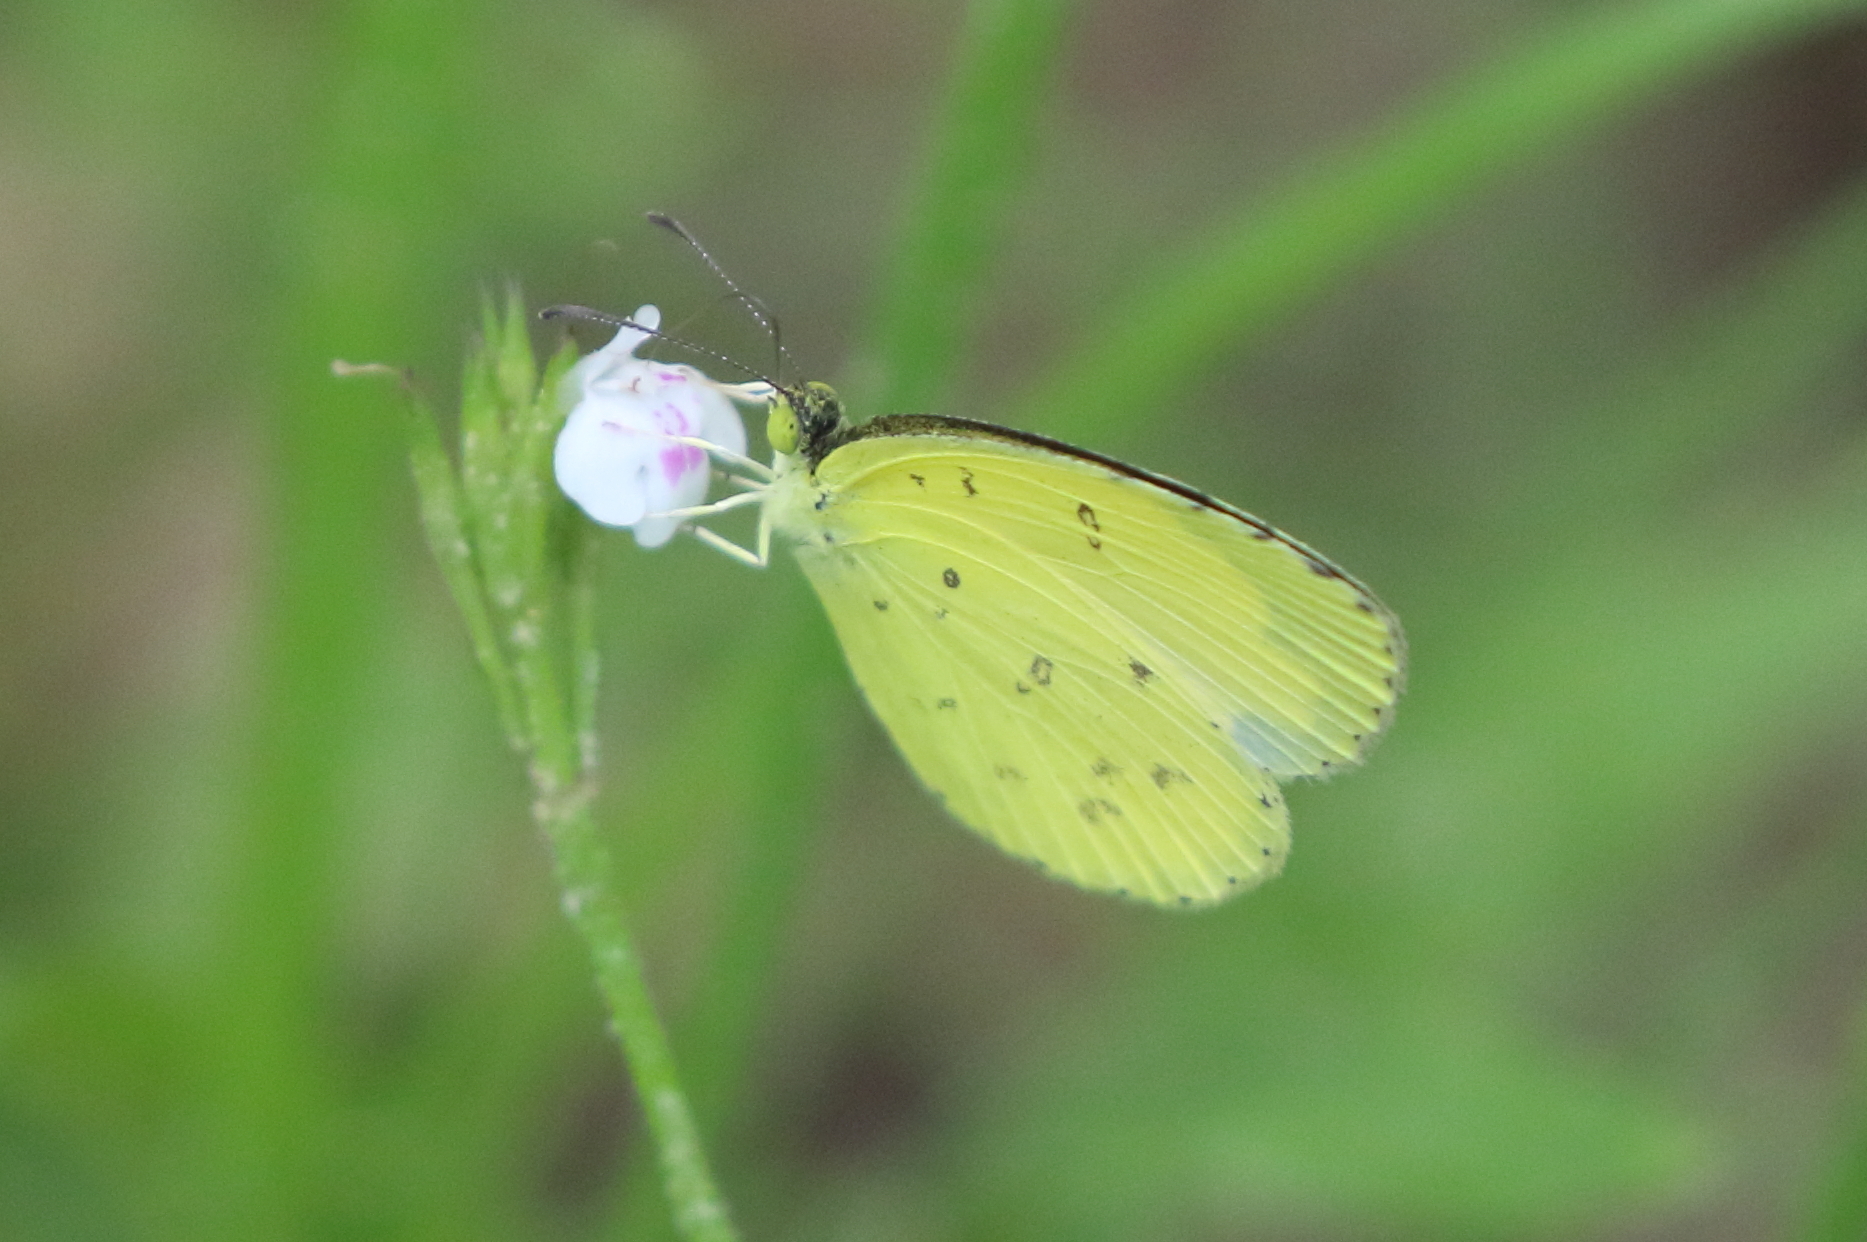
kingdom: Animalia
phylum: Arthropoda
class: Insecta
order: Lepidoptera
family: Pieridae
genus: Eurema
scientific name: Eurema
